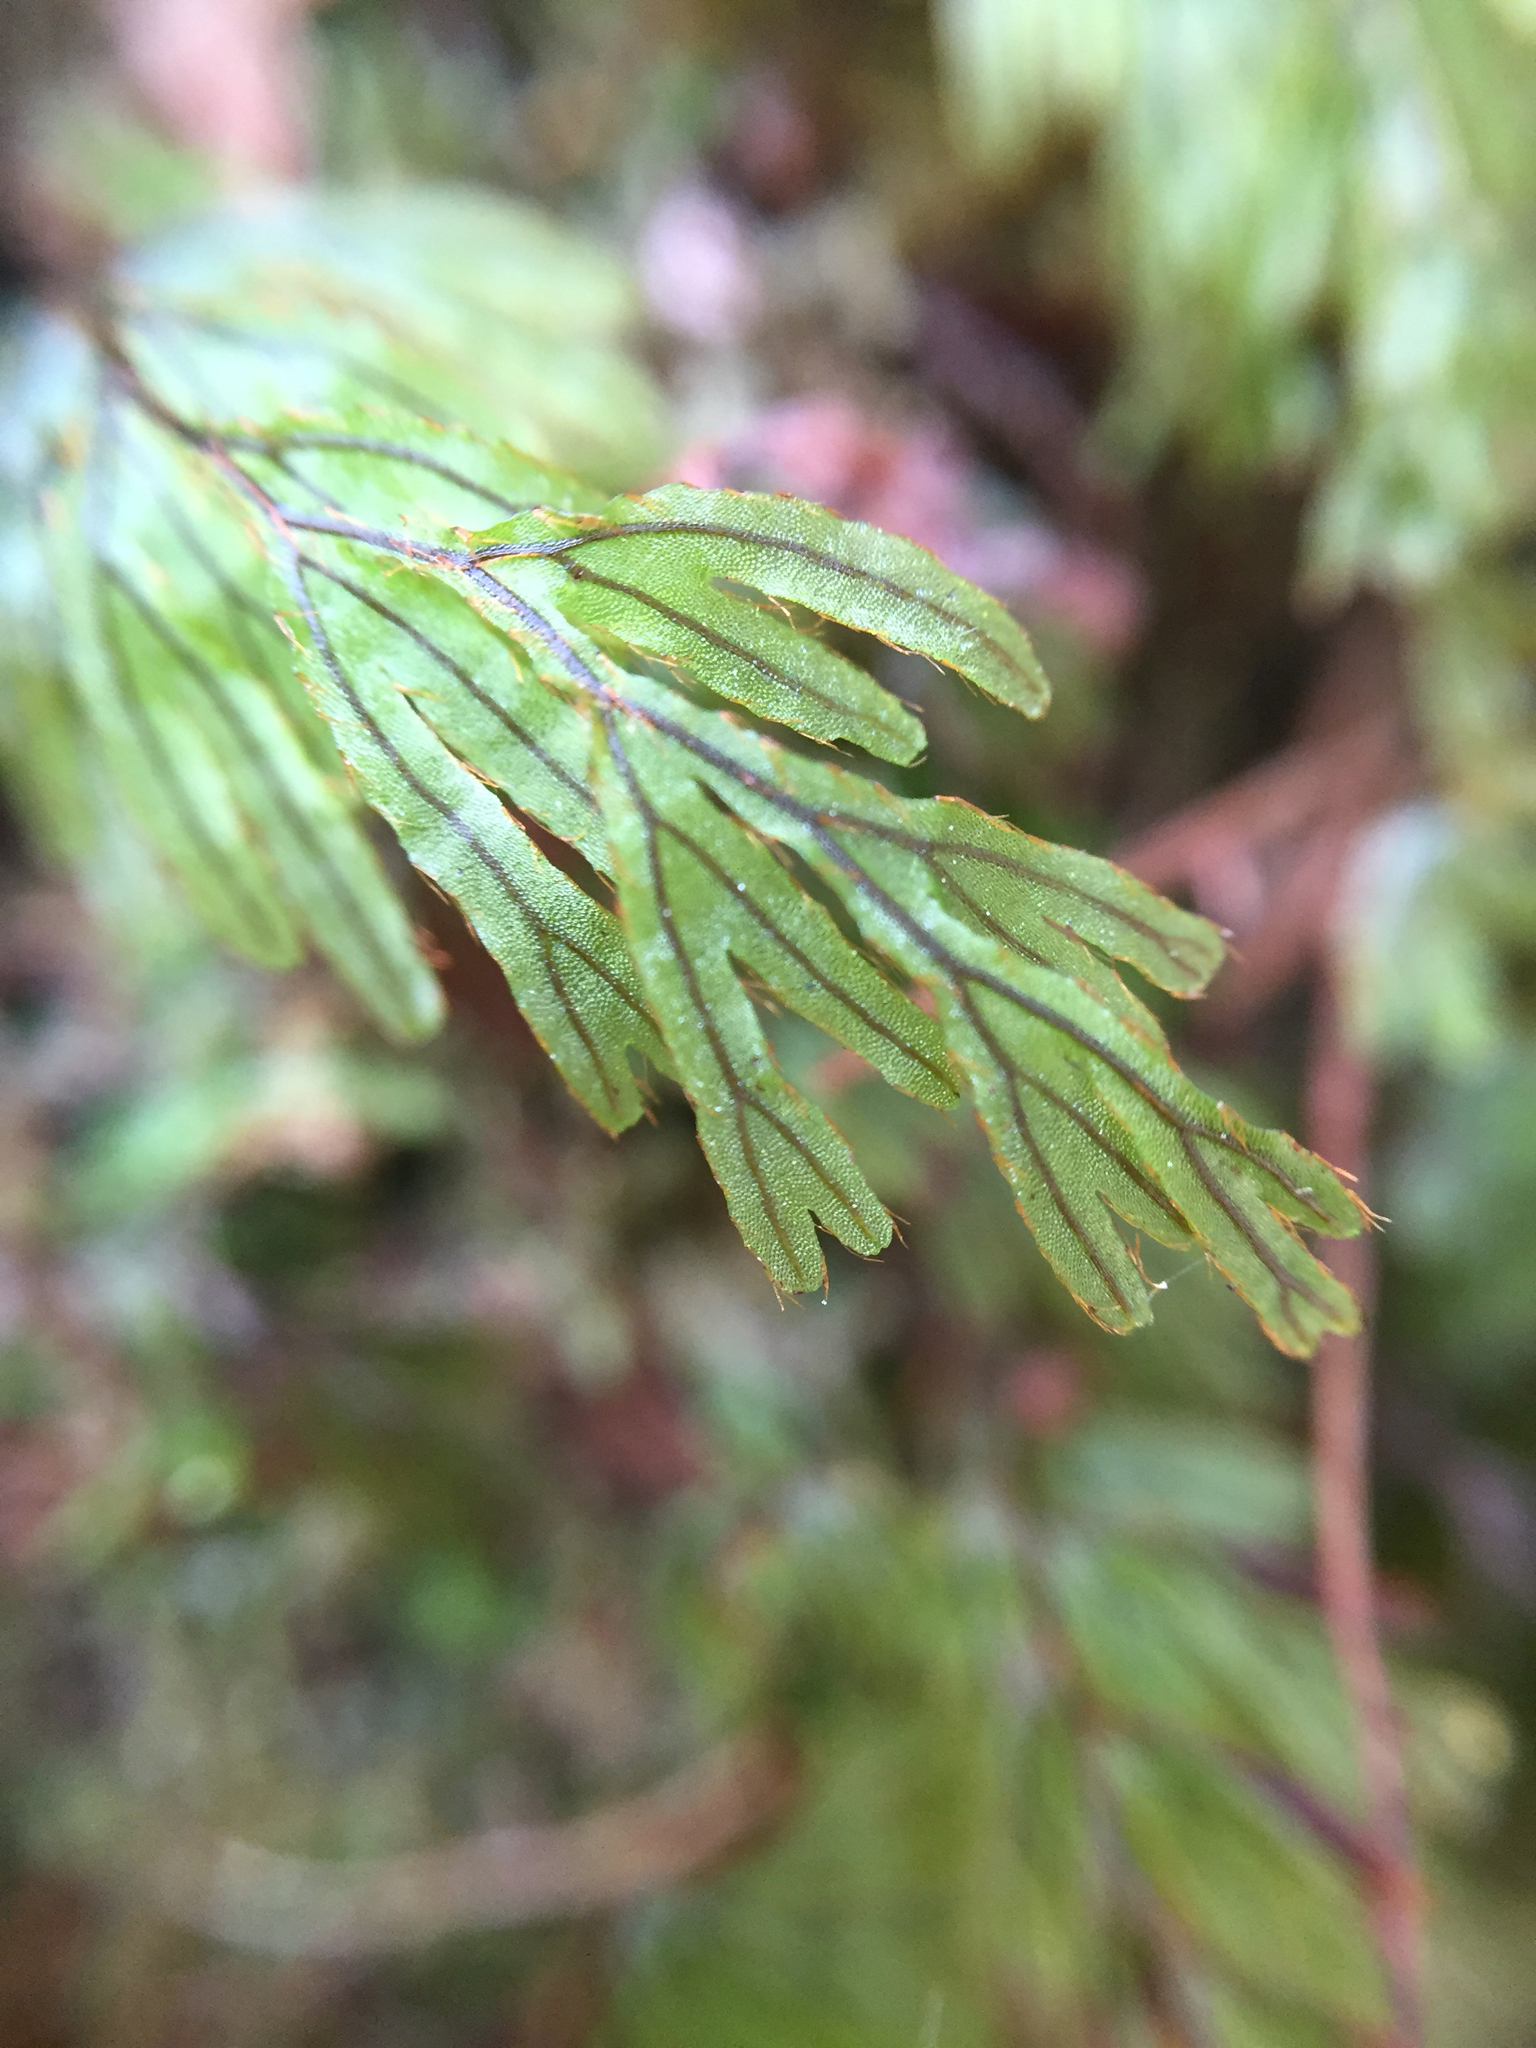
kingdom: Plantae
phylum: Tracheophyta
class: Polypodiopsida
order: Hymenophyllales
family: Hymenophyllaceae
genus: Hymenophyllum
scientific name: Hymenophyllum lanceolatum
